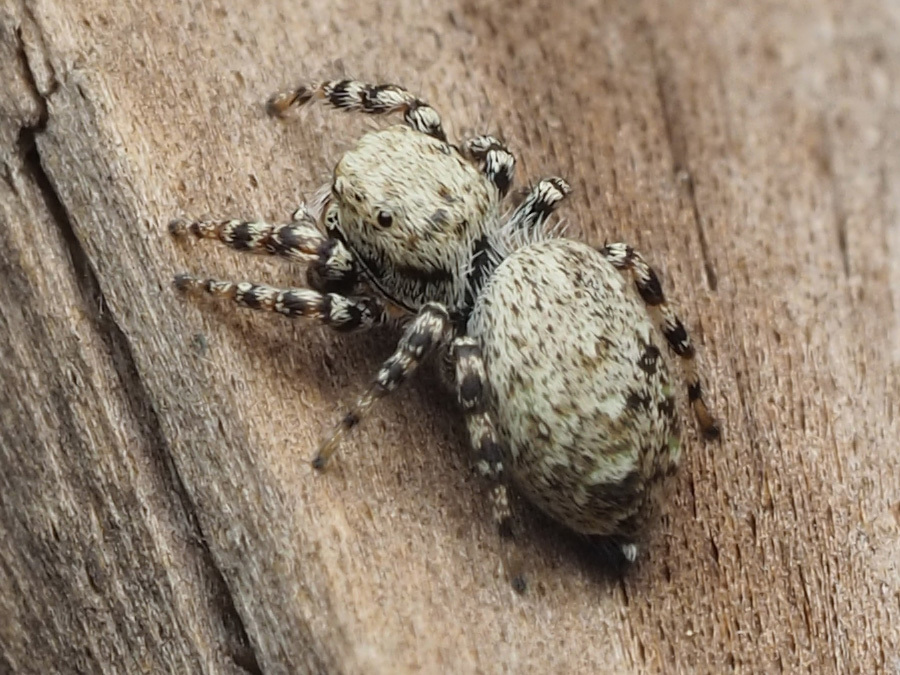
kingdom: Animalia
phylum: Arthropoda
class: Arachnida
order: Araneae
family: Salticidae
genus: Pelegrina
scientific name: Pelegrina galathea
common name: Jumping spiders
